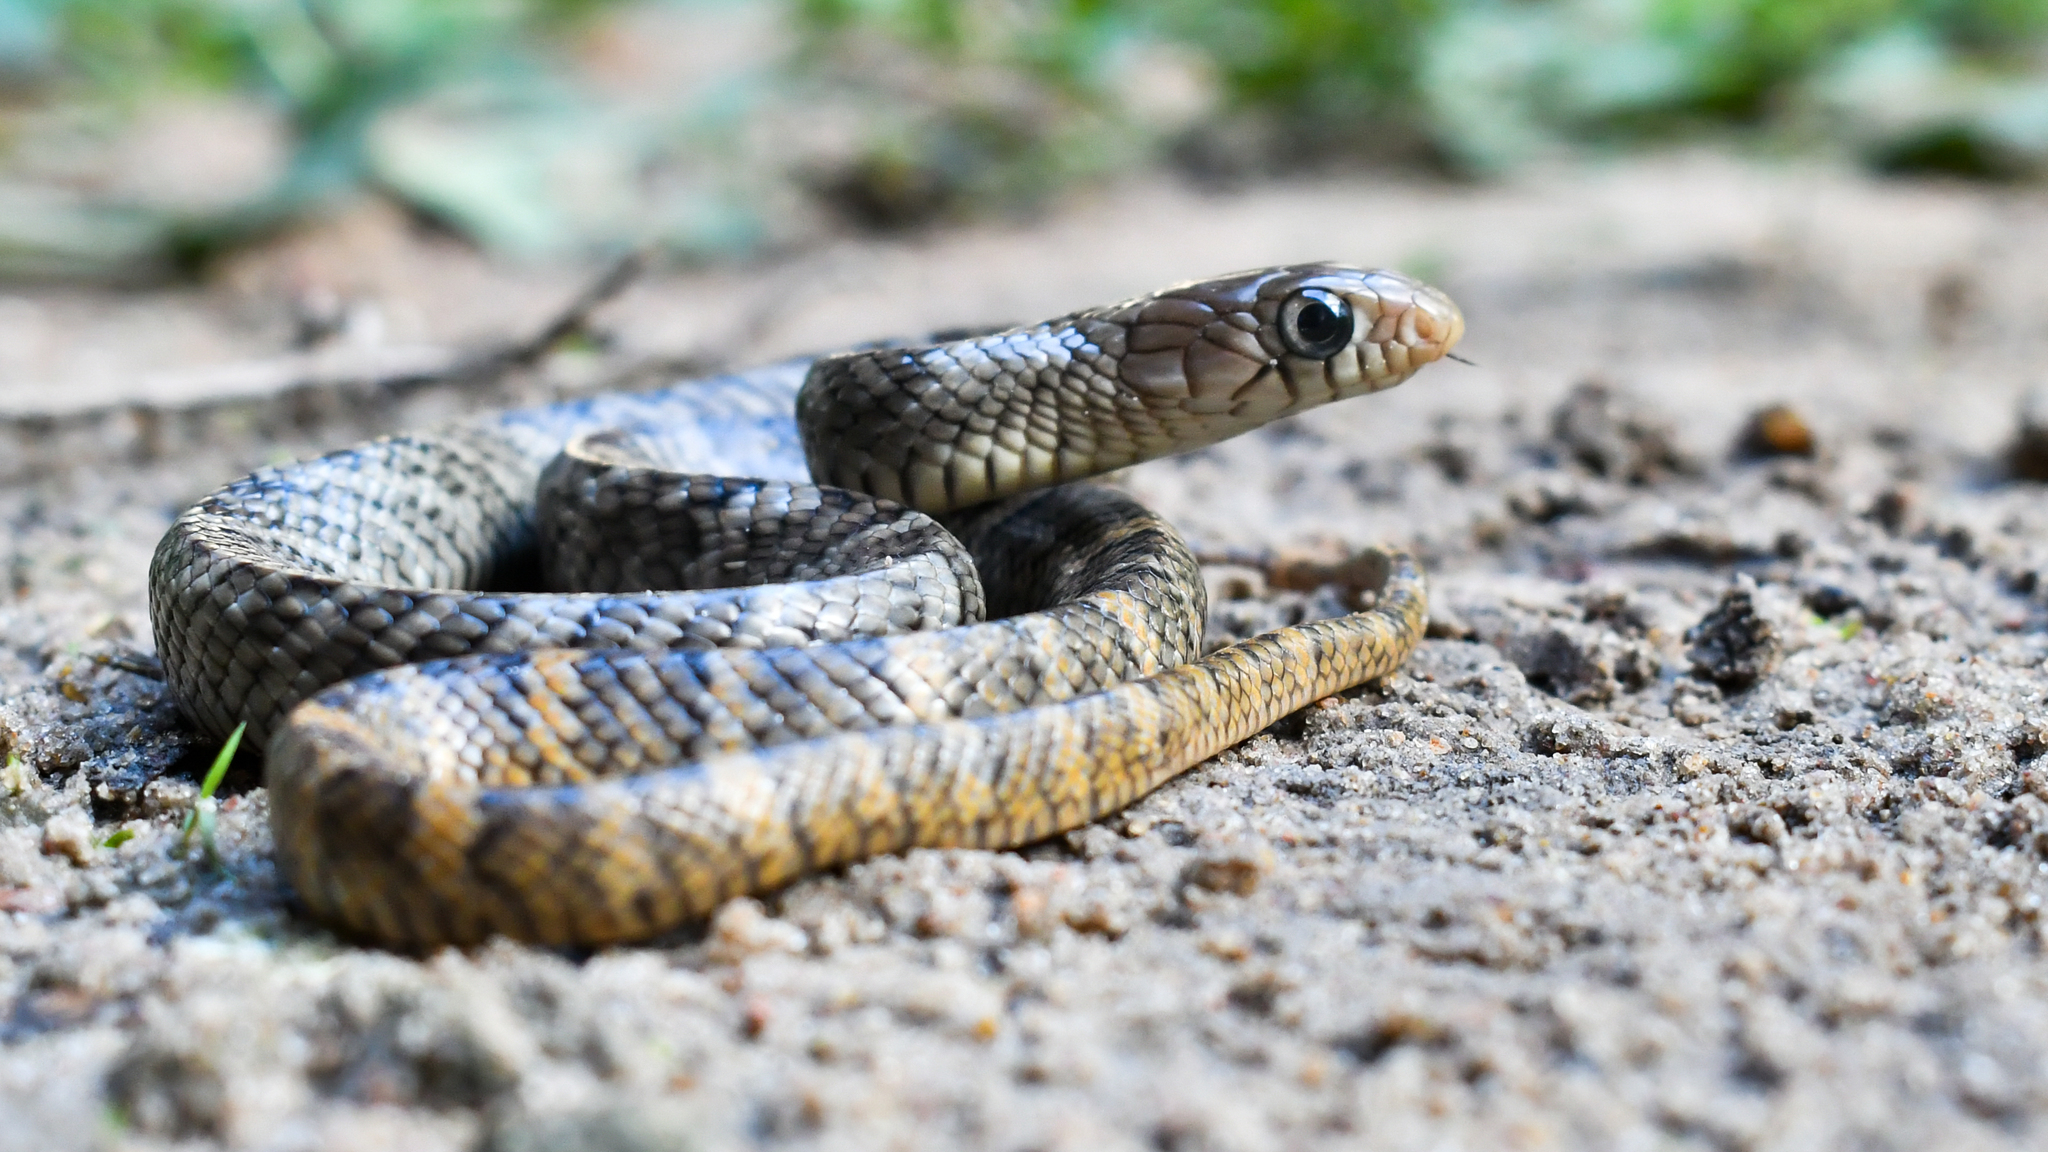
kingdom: Animalia
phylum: Chordata
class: Squamata
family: Colubridae
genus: Drymarchon
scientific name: Drymarchon corais
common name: Indigo snake
